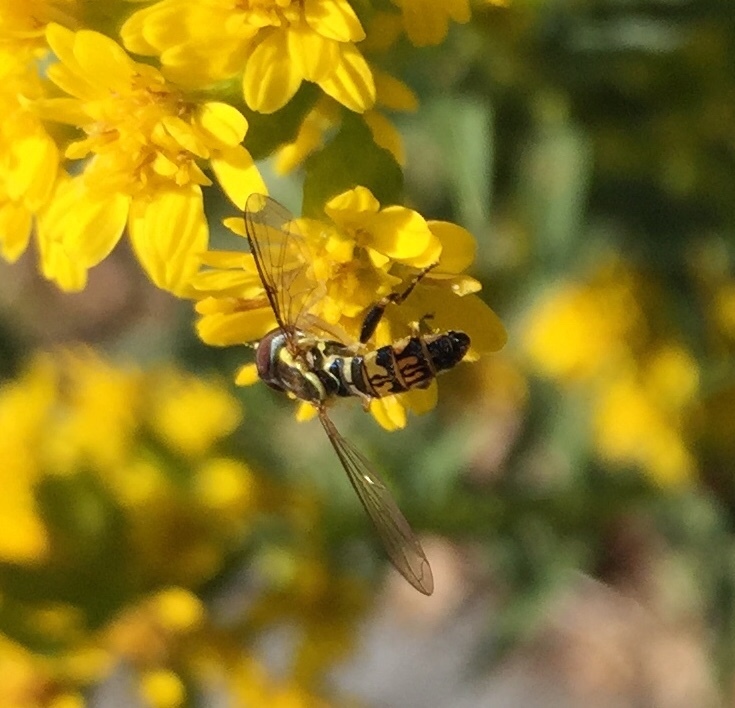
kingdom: Animalia
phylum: Arthropoda
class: Insecta
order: Diptera
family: Syrphidae
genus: Toxomerus
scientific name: Toxomerus geminatus
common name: Eastern calligrapher
